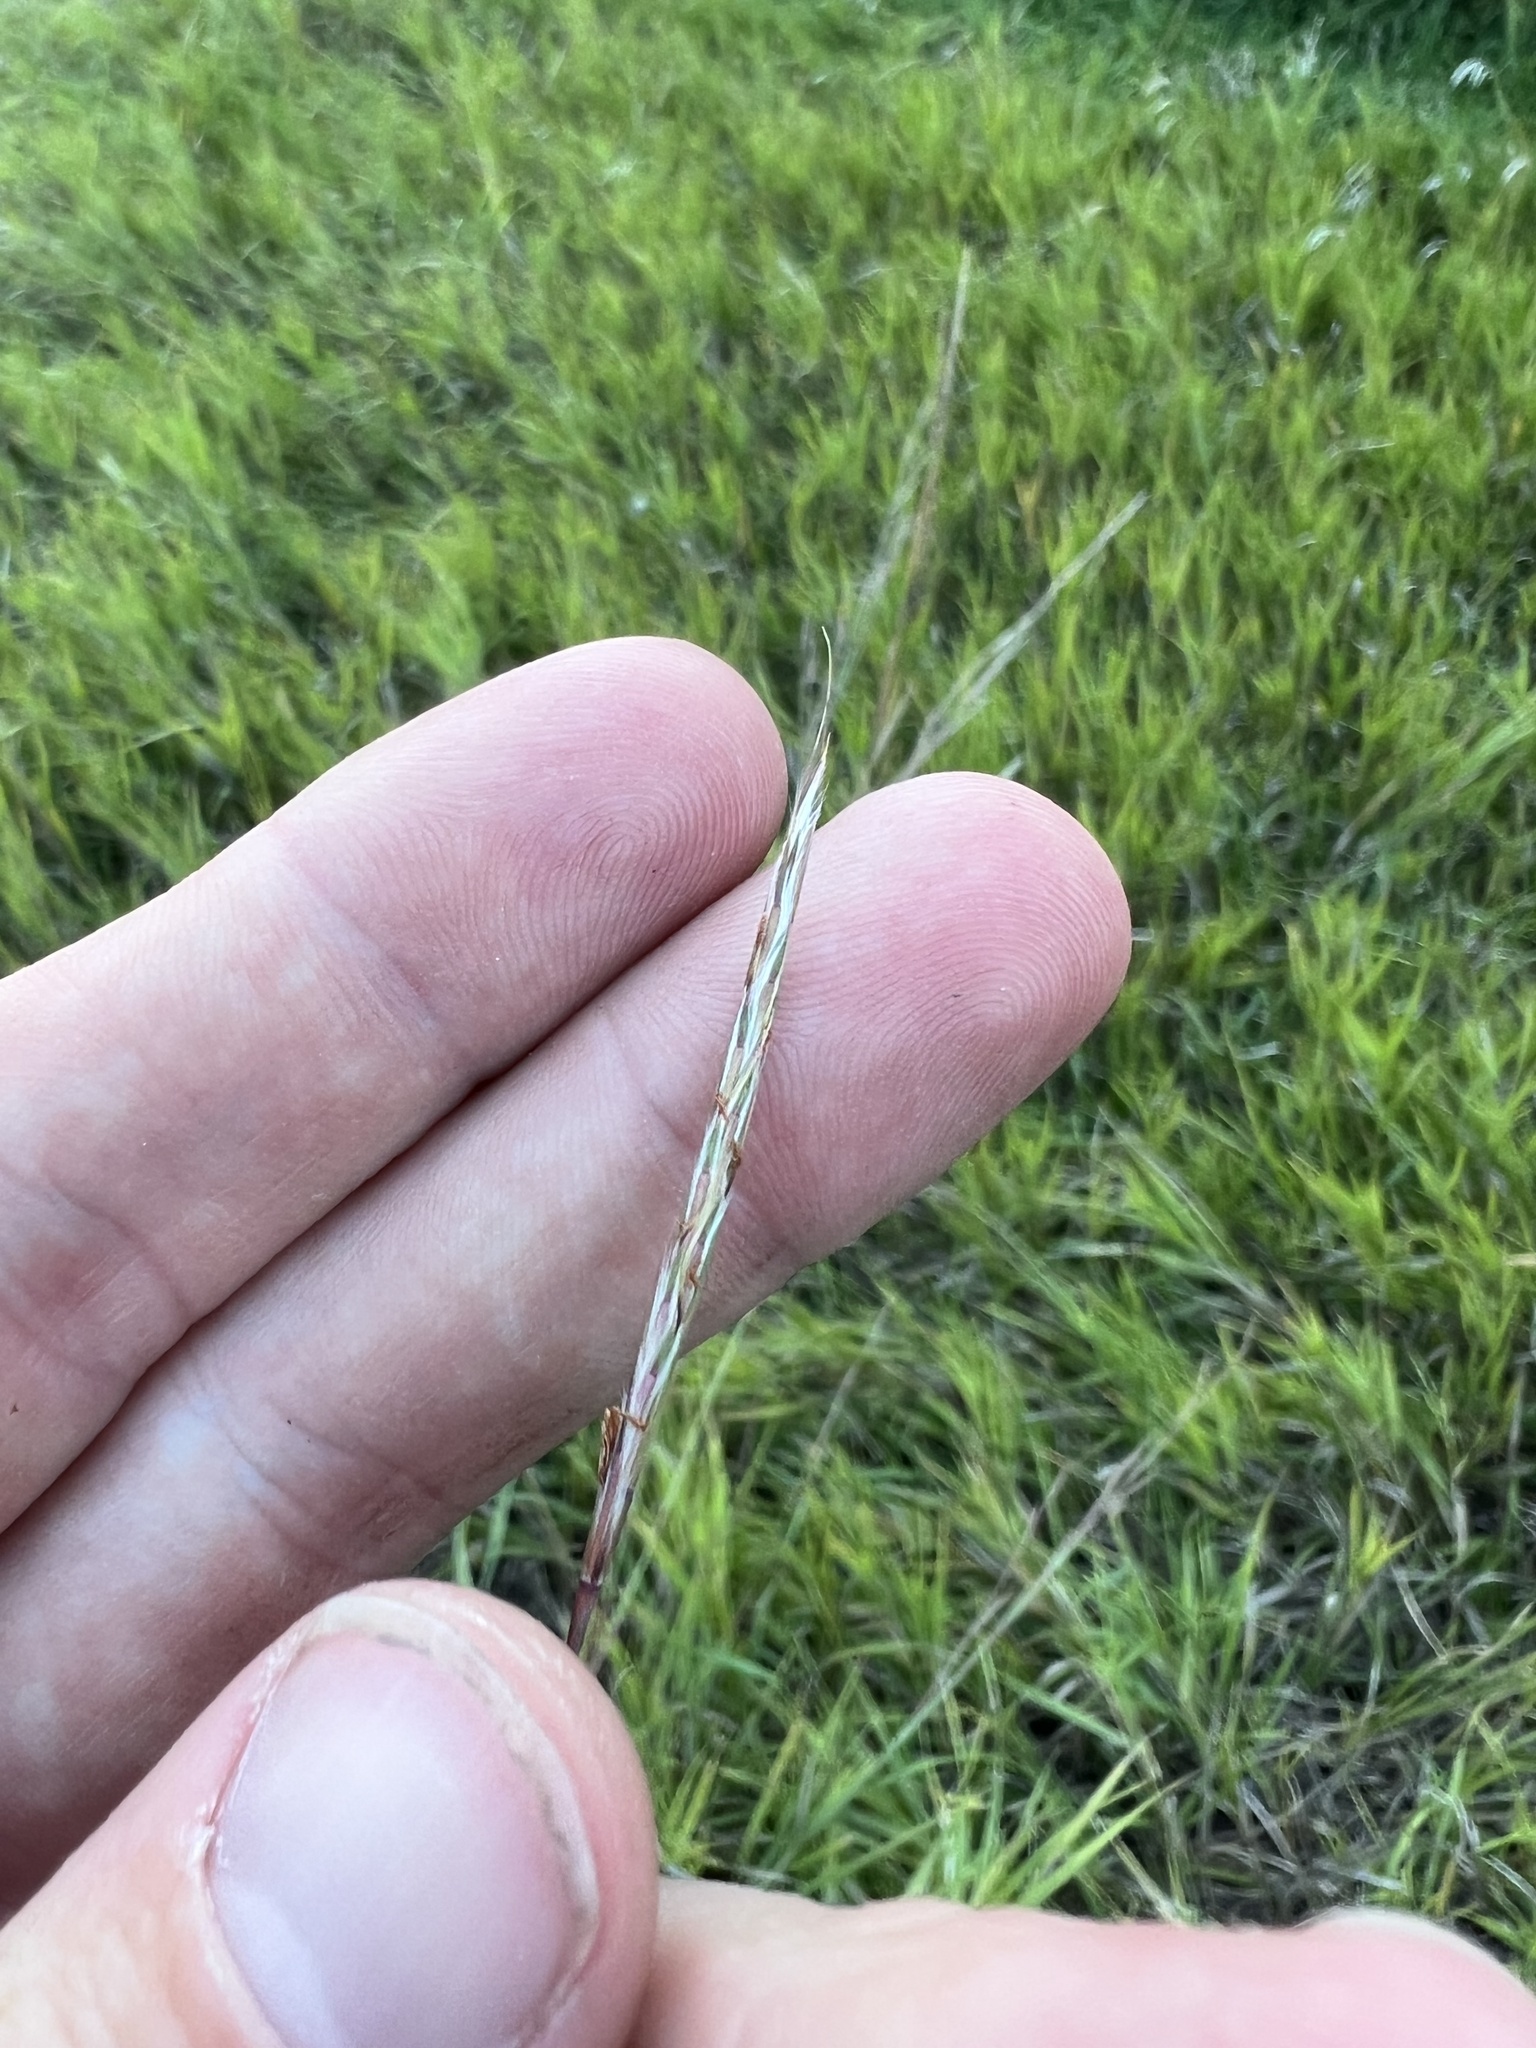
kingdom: Plantae
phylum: Tracheophyta
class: Liliopsida
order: Poales
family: Poaceae
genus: Schizachyrium
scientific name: Schizachyrium scoparium
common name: Little bluestem
